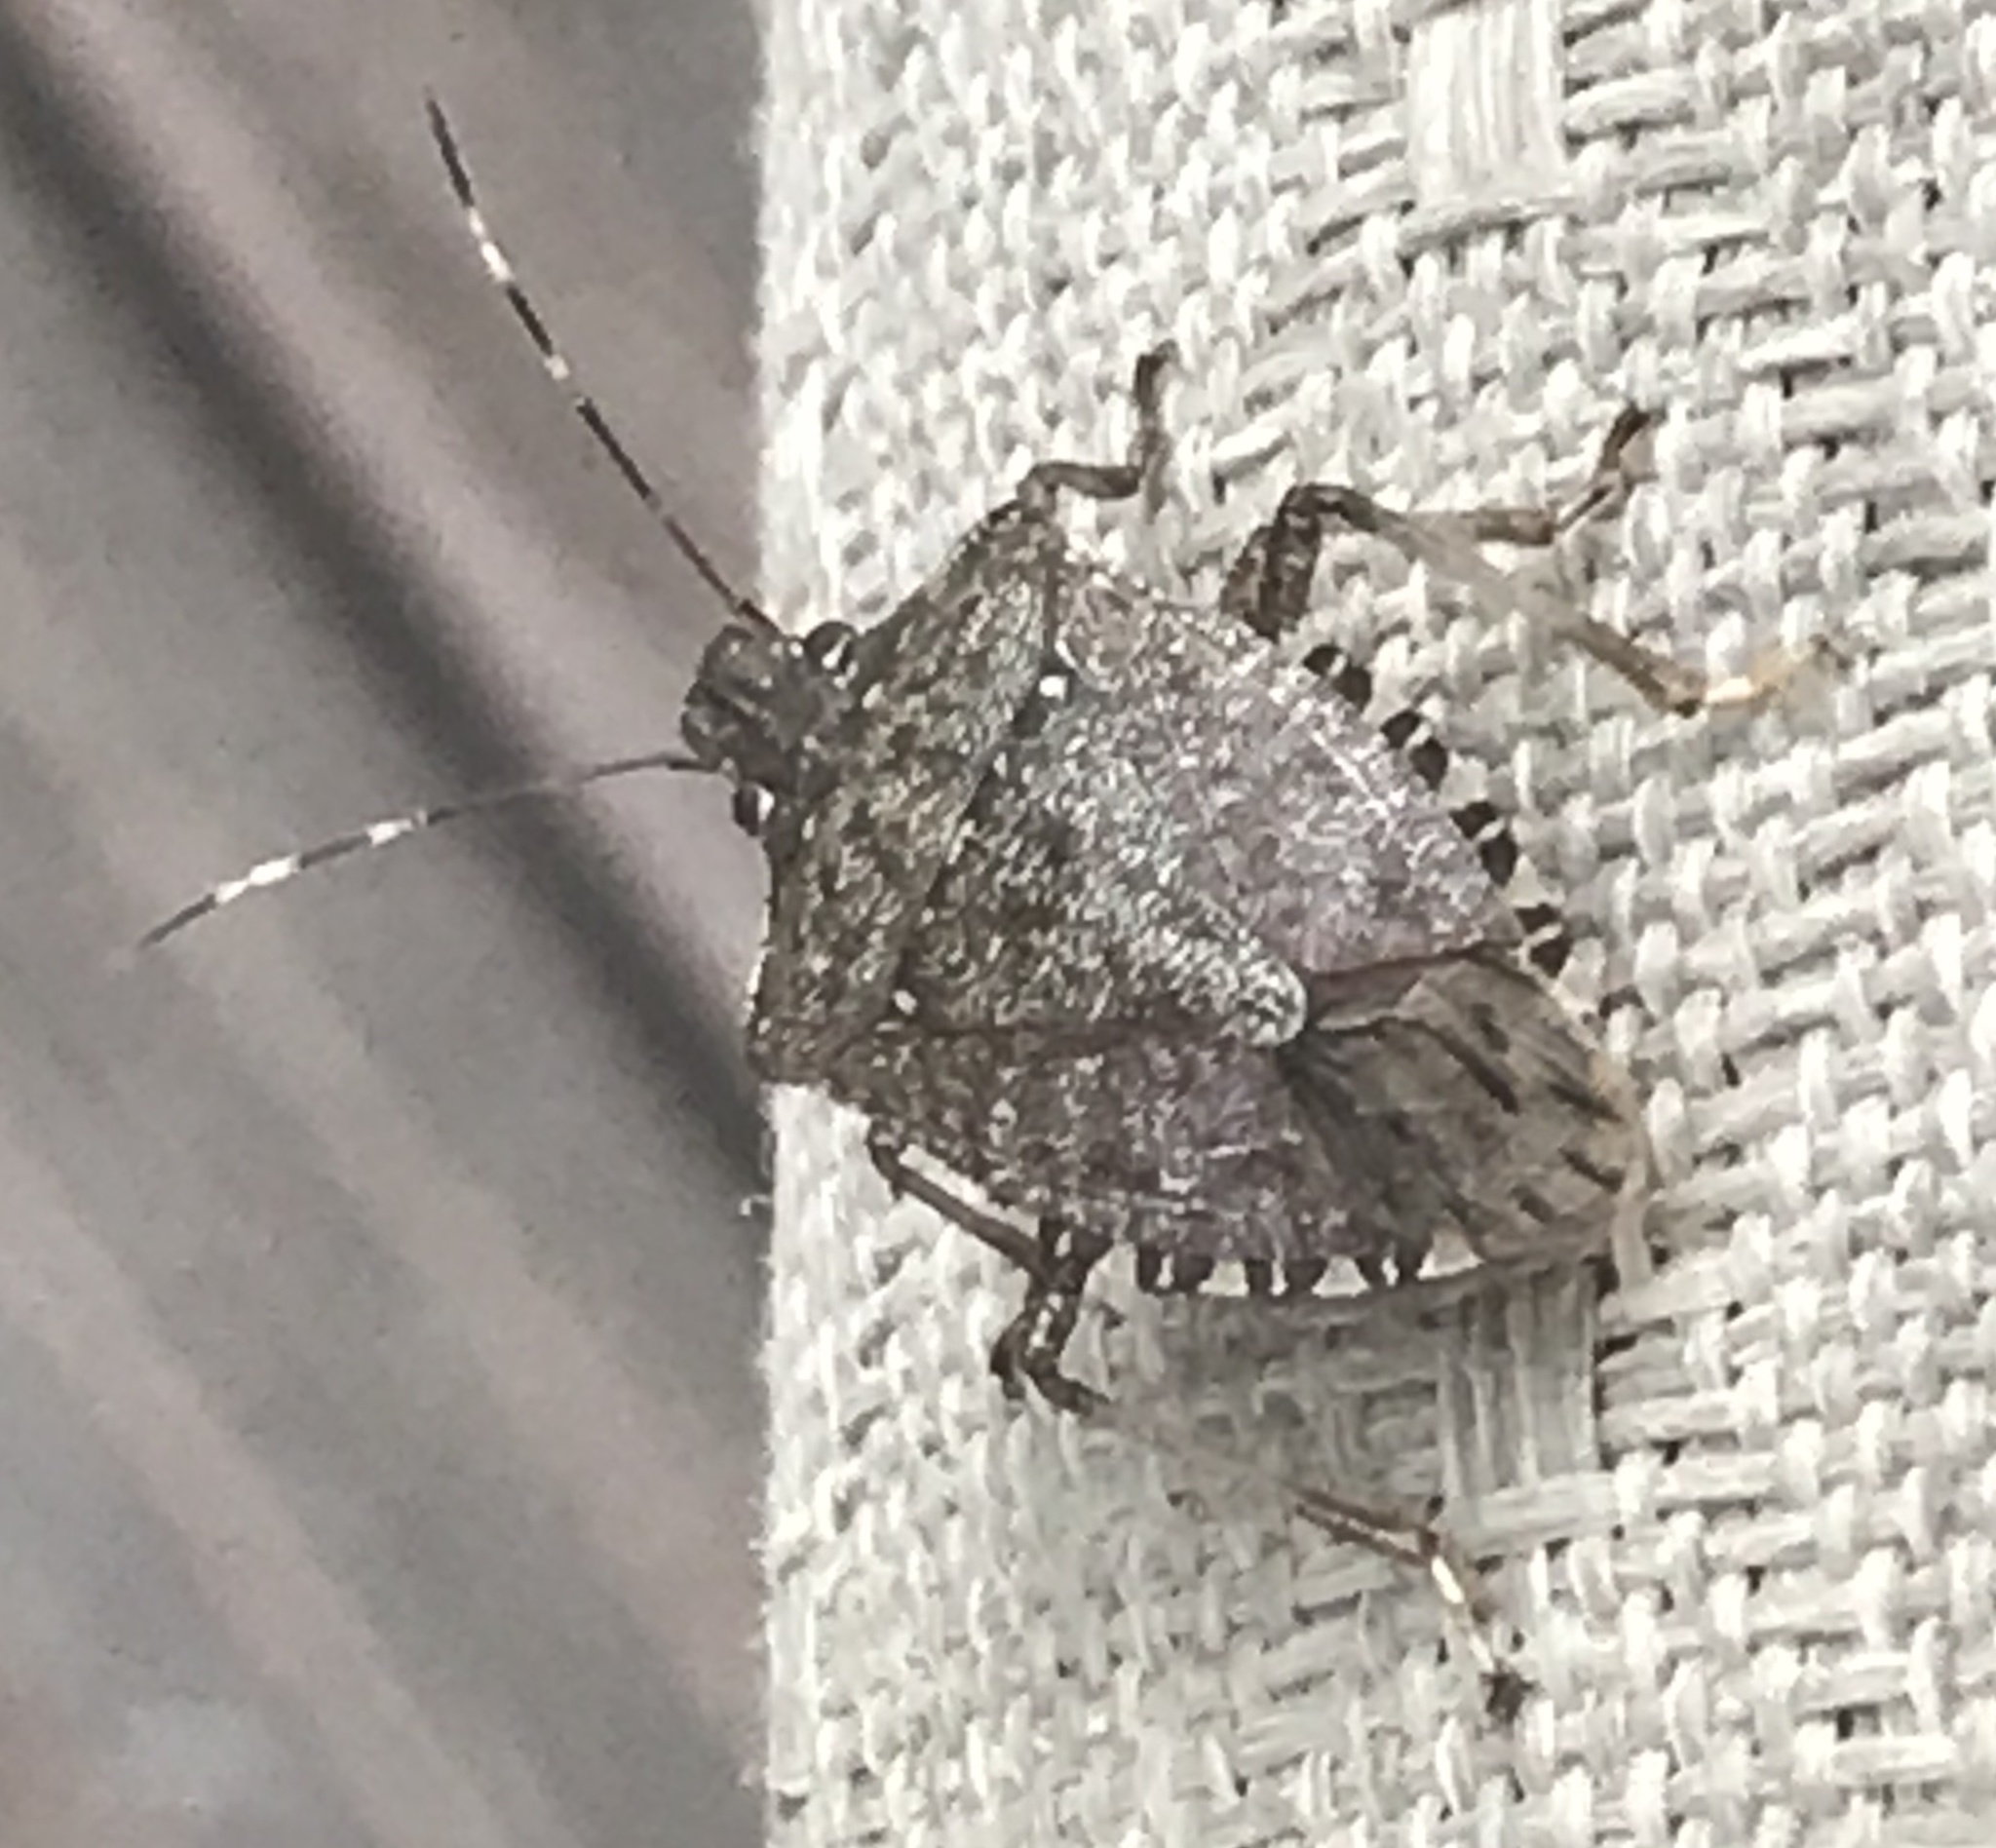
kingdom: Animalia
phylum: Arthropoda
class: Insecta
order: Hemiptera
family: Pentatomidae
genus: Halyomorpha
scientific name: Halyomorpha halys
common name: Brown marmorated stink bug
